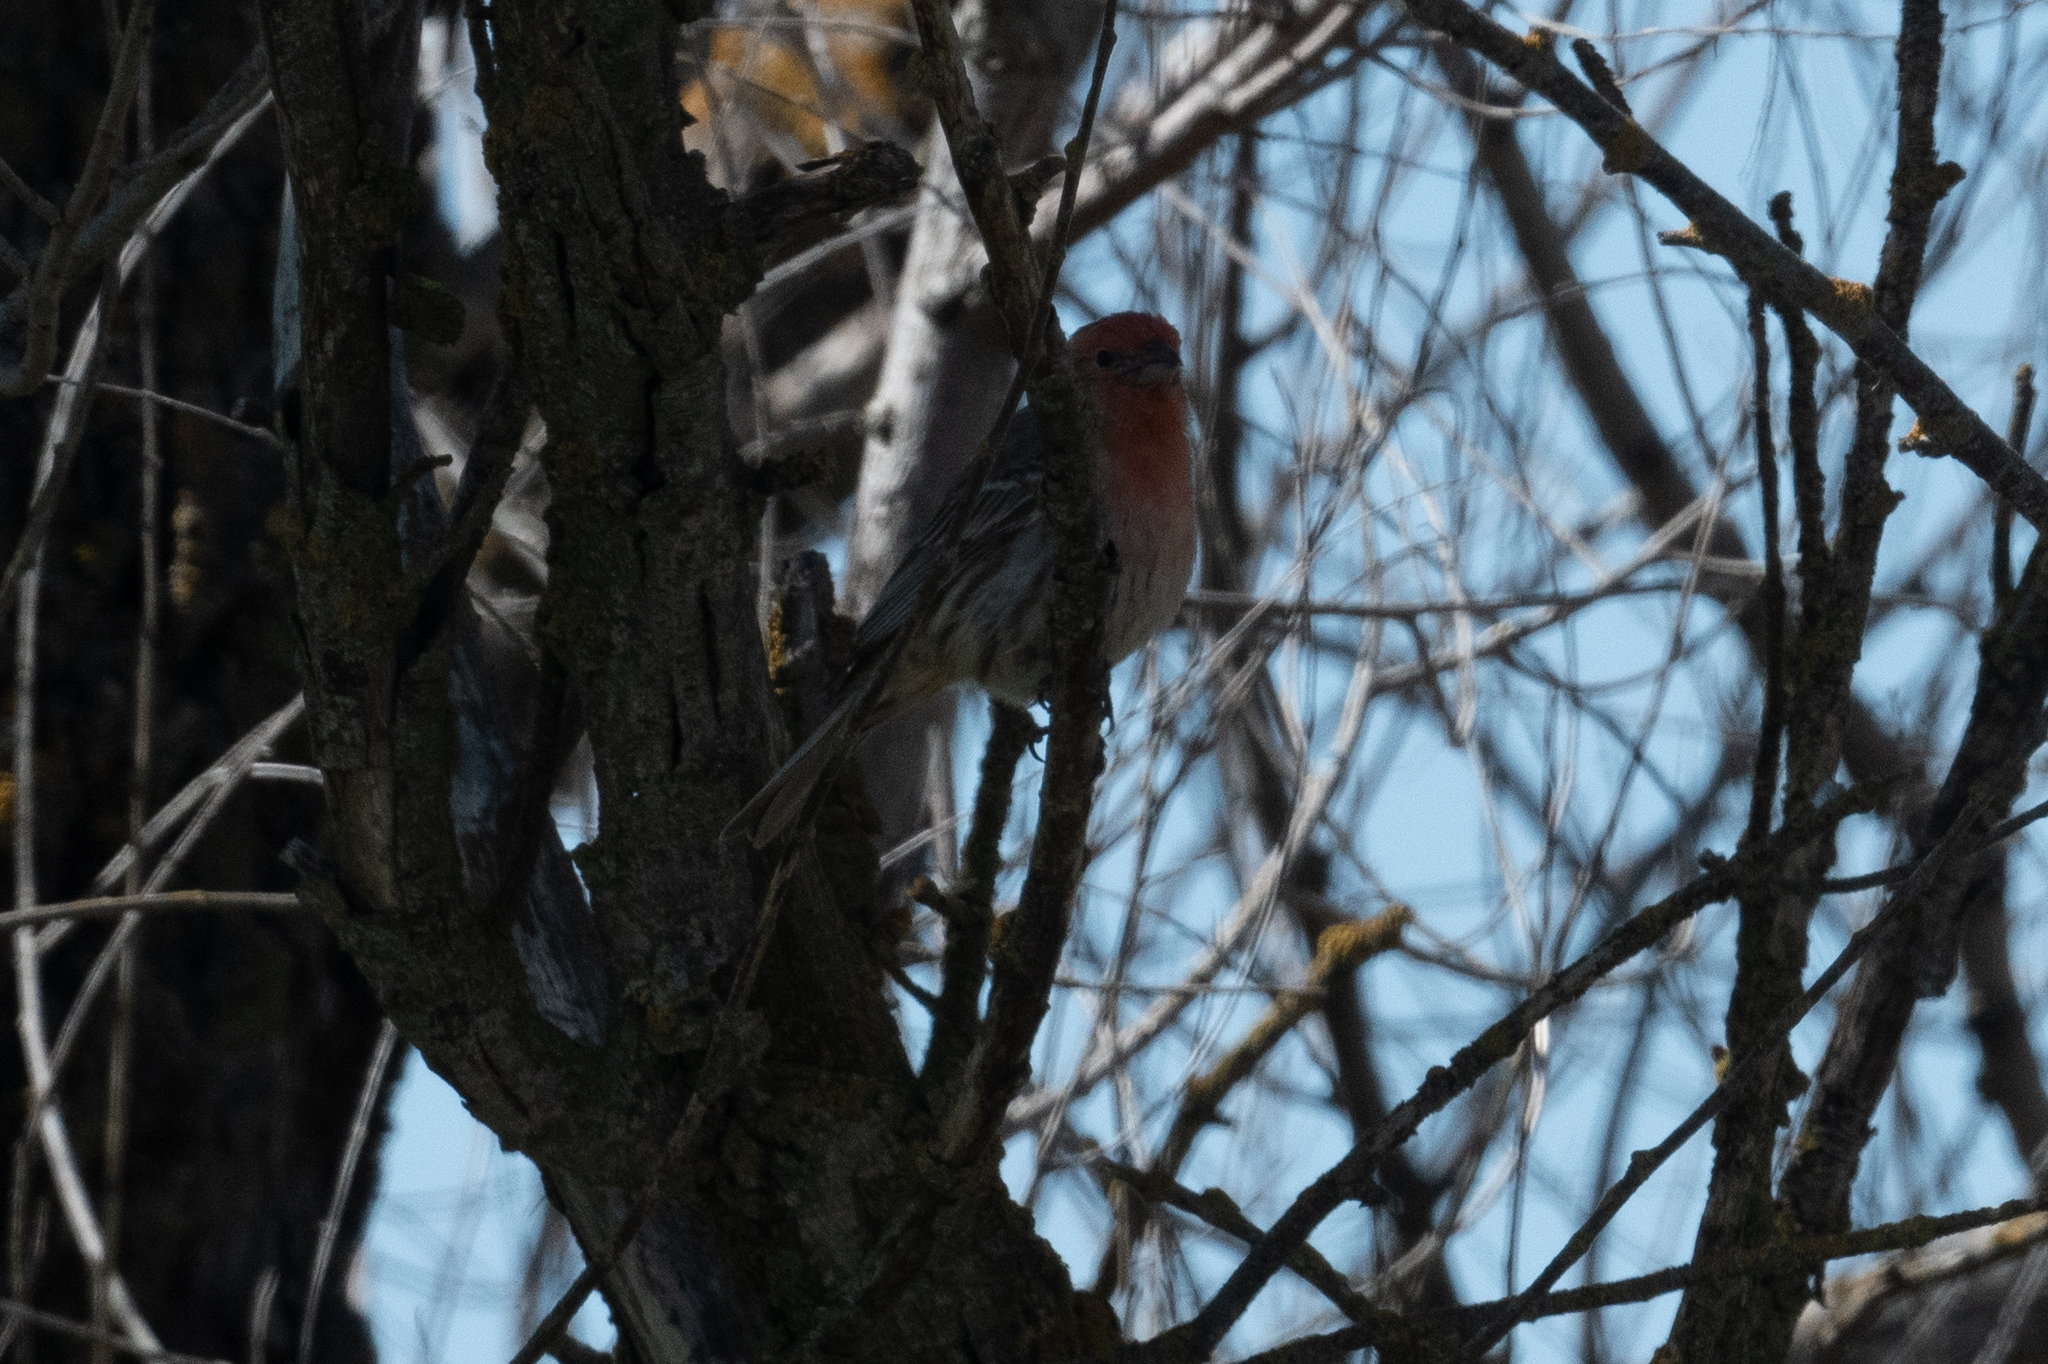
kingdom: Animalia
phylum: Chordata
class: Aves
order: Passeriformes
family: Fringillidae
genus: Haemorhous
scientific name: Haemorhous mexicanus
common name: House finch
